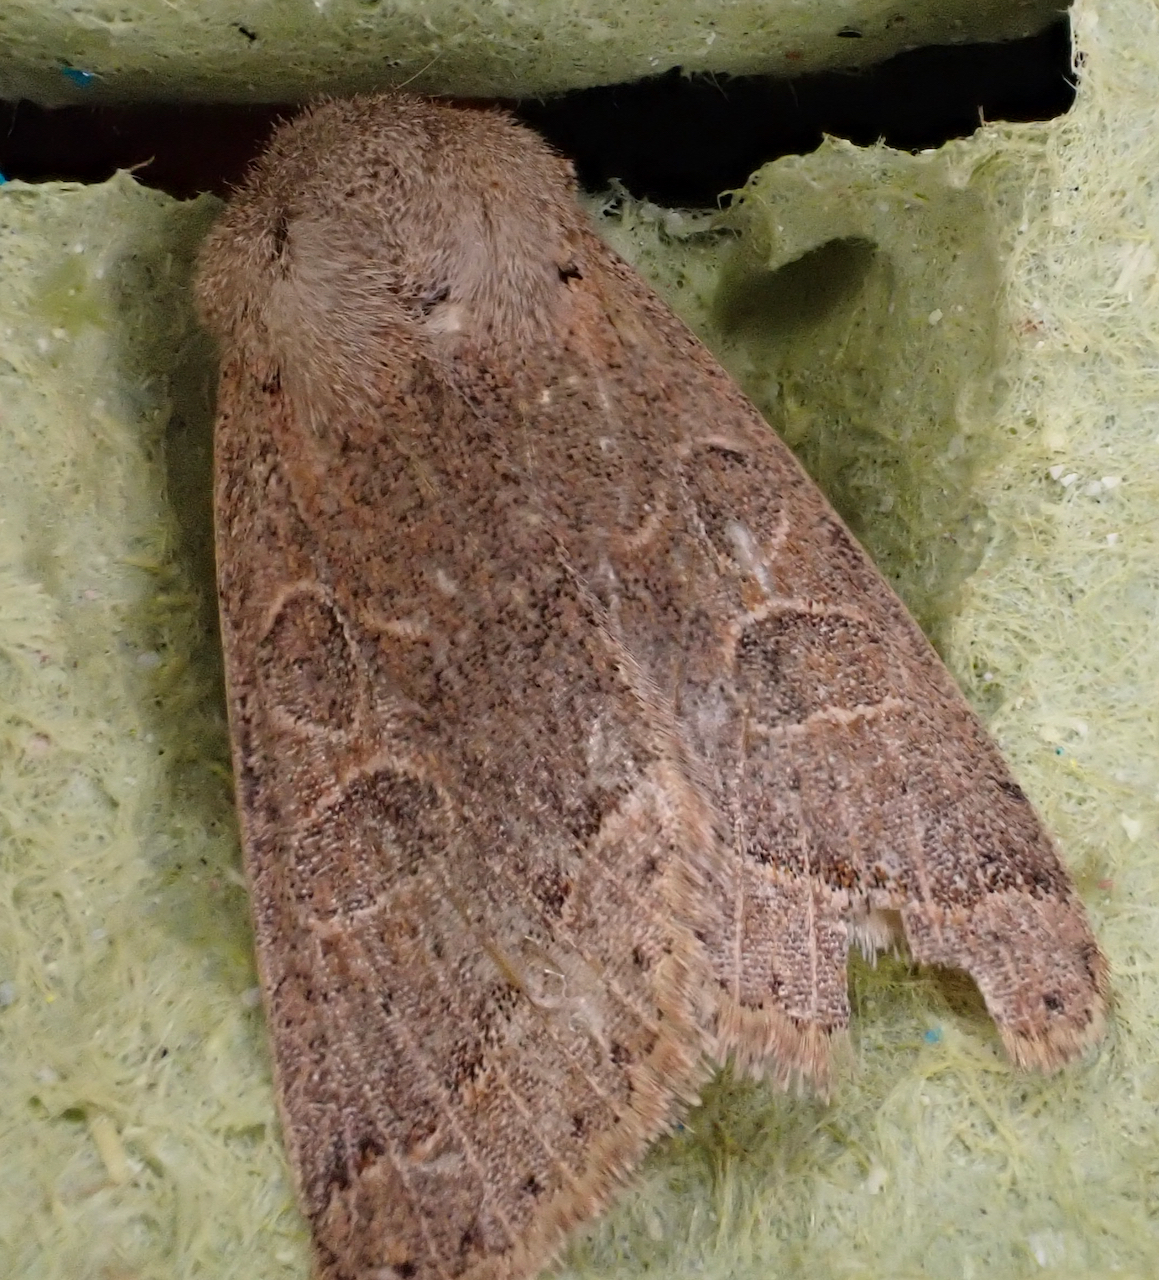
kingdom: Animalia
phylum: Arthropoda
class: Insecta
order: Lepidoptera
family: Noctuidae
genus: Orthosia
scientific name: Orthosia cerasi
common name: Common quaker
